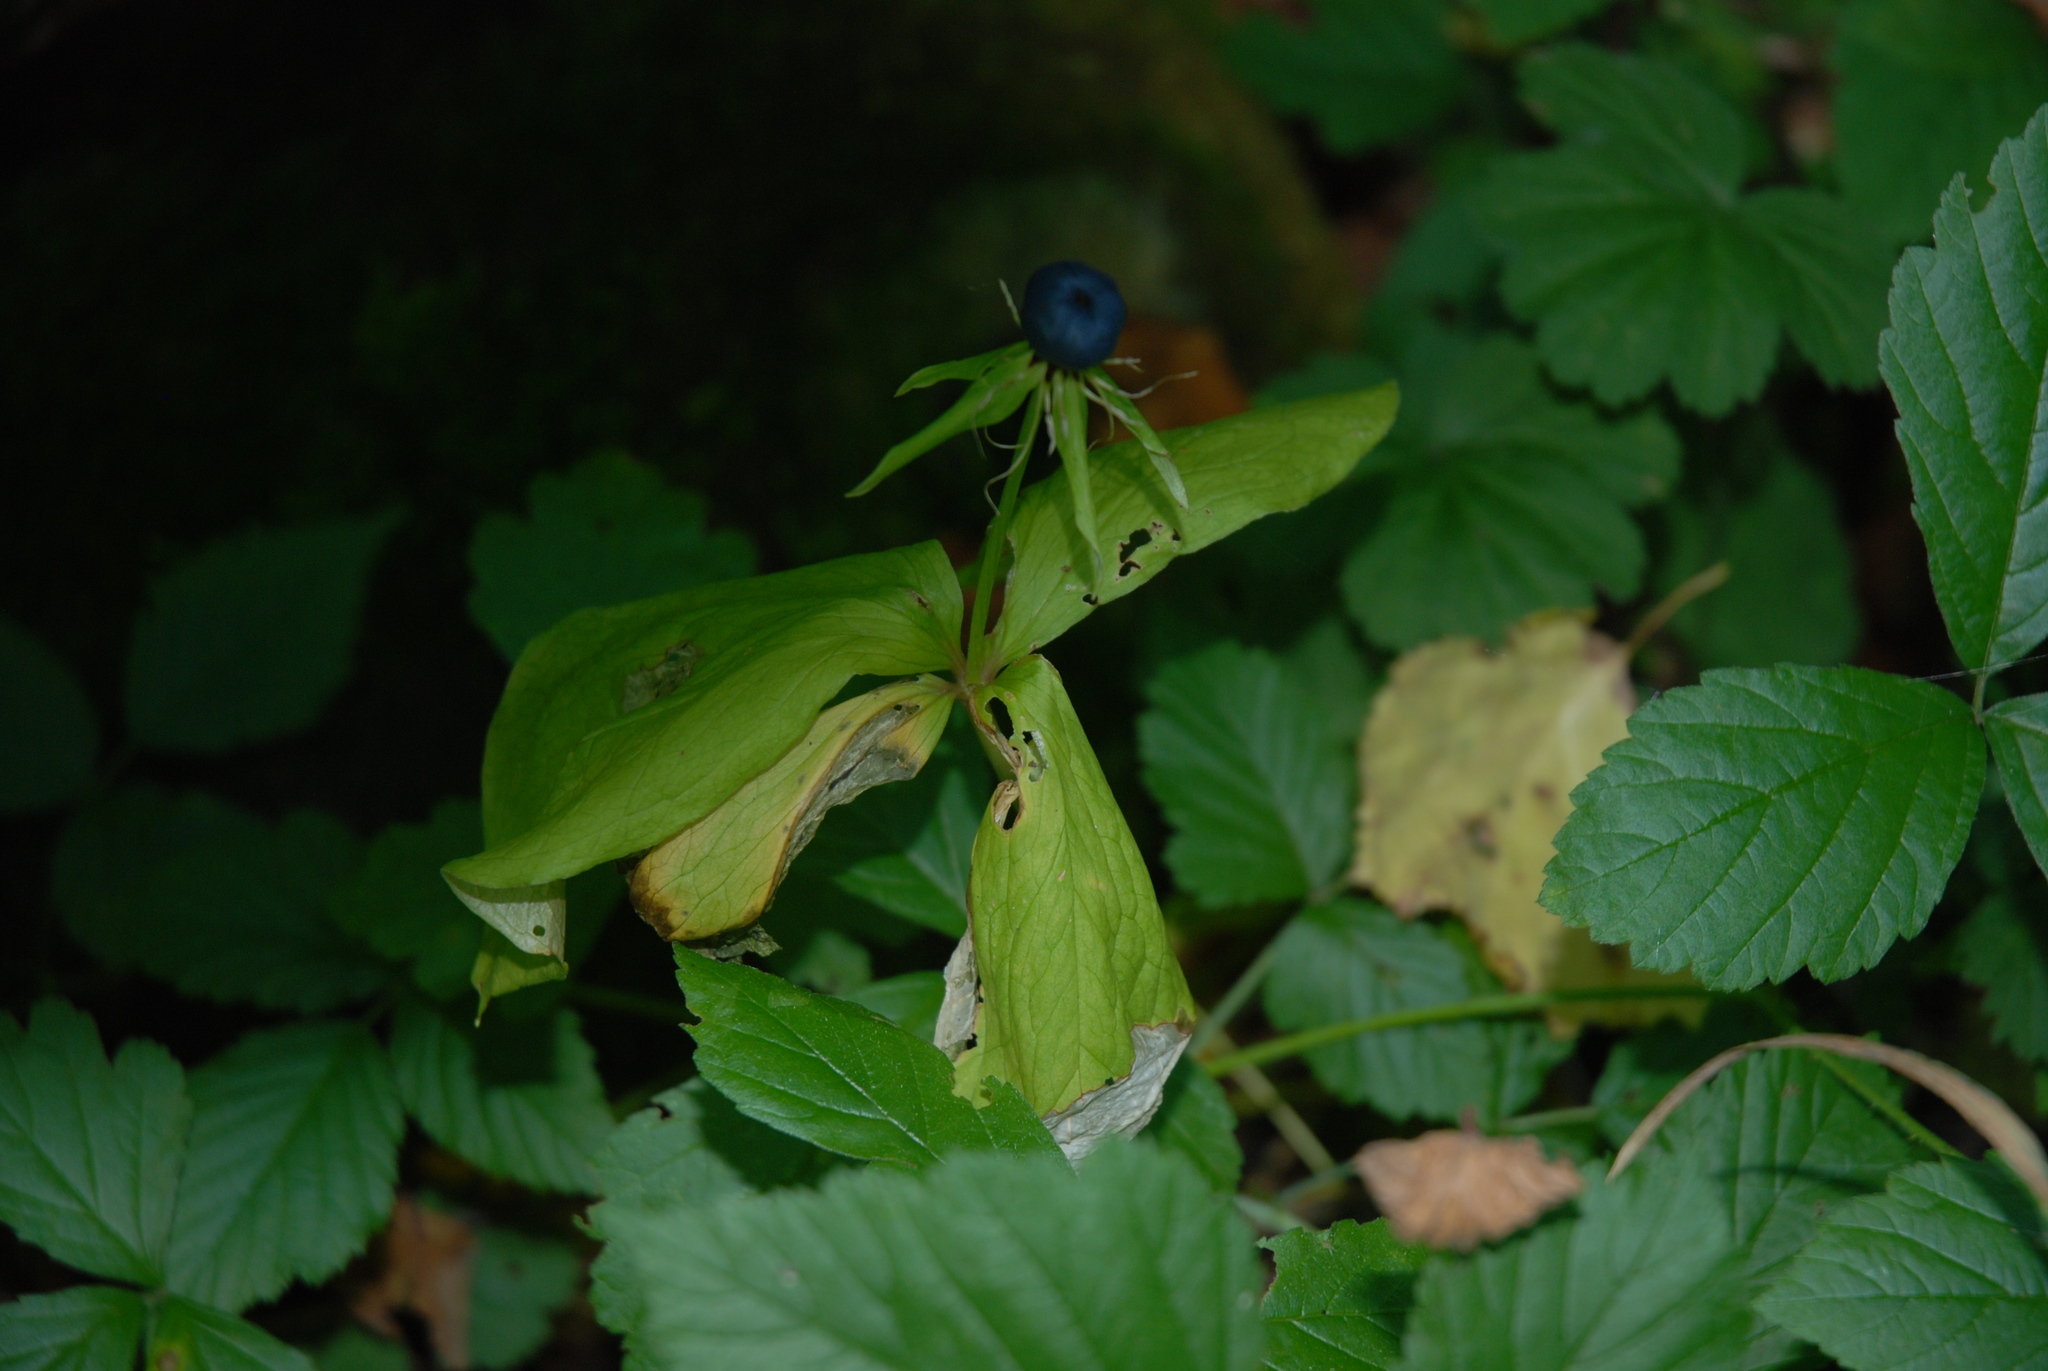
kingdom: Plantae
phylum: Tracheophyta
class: Liliopsida
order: Liliales
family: Melanthiaceae
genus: Paris
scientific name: Paris quadrifolia
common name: Herb-paris
